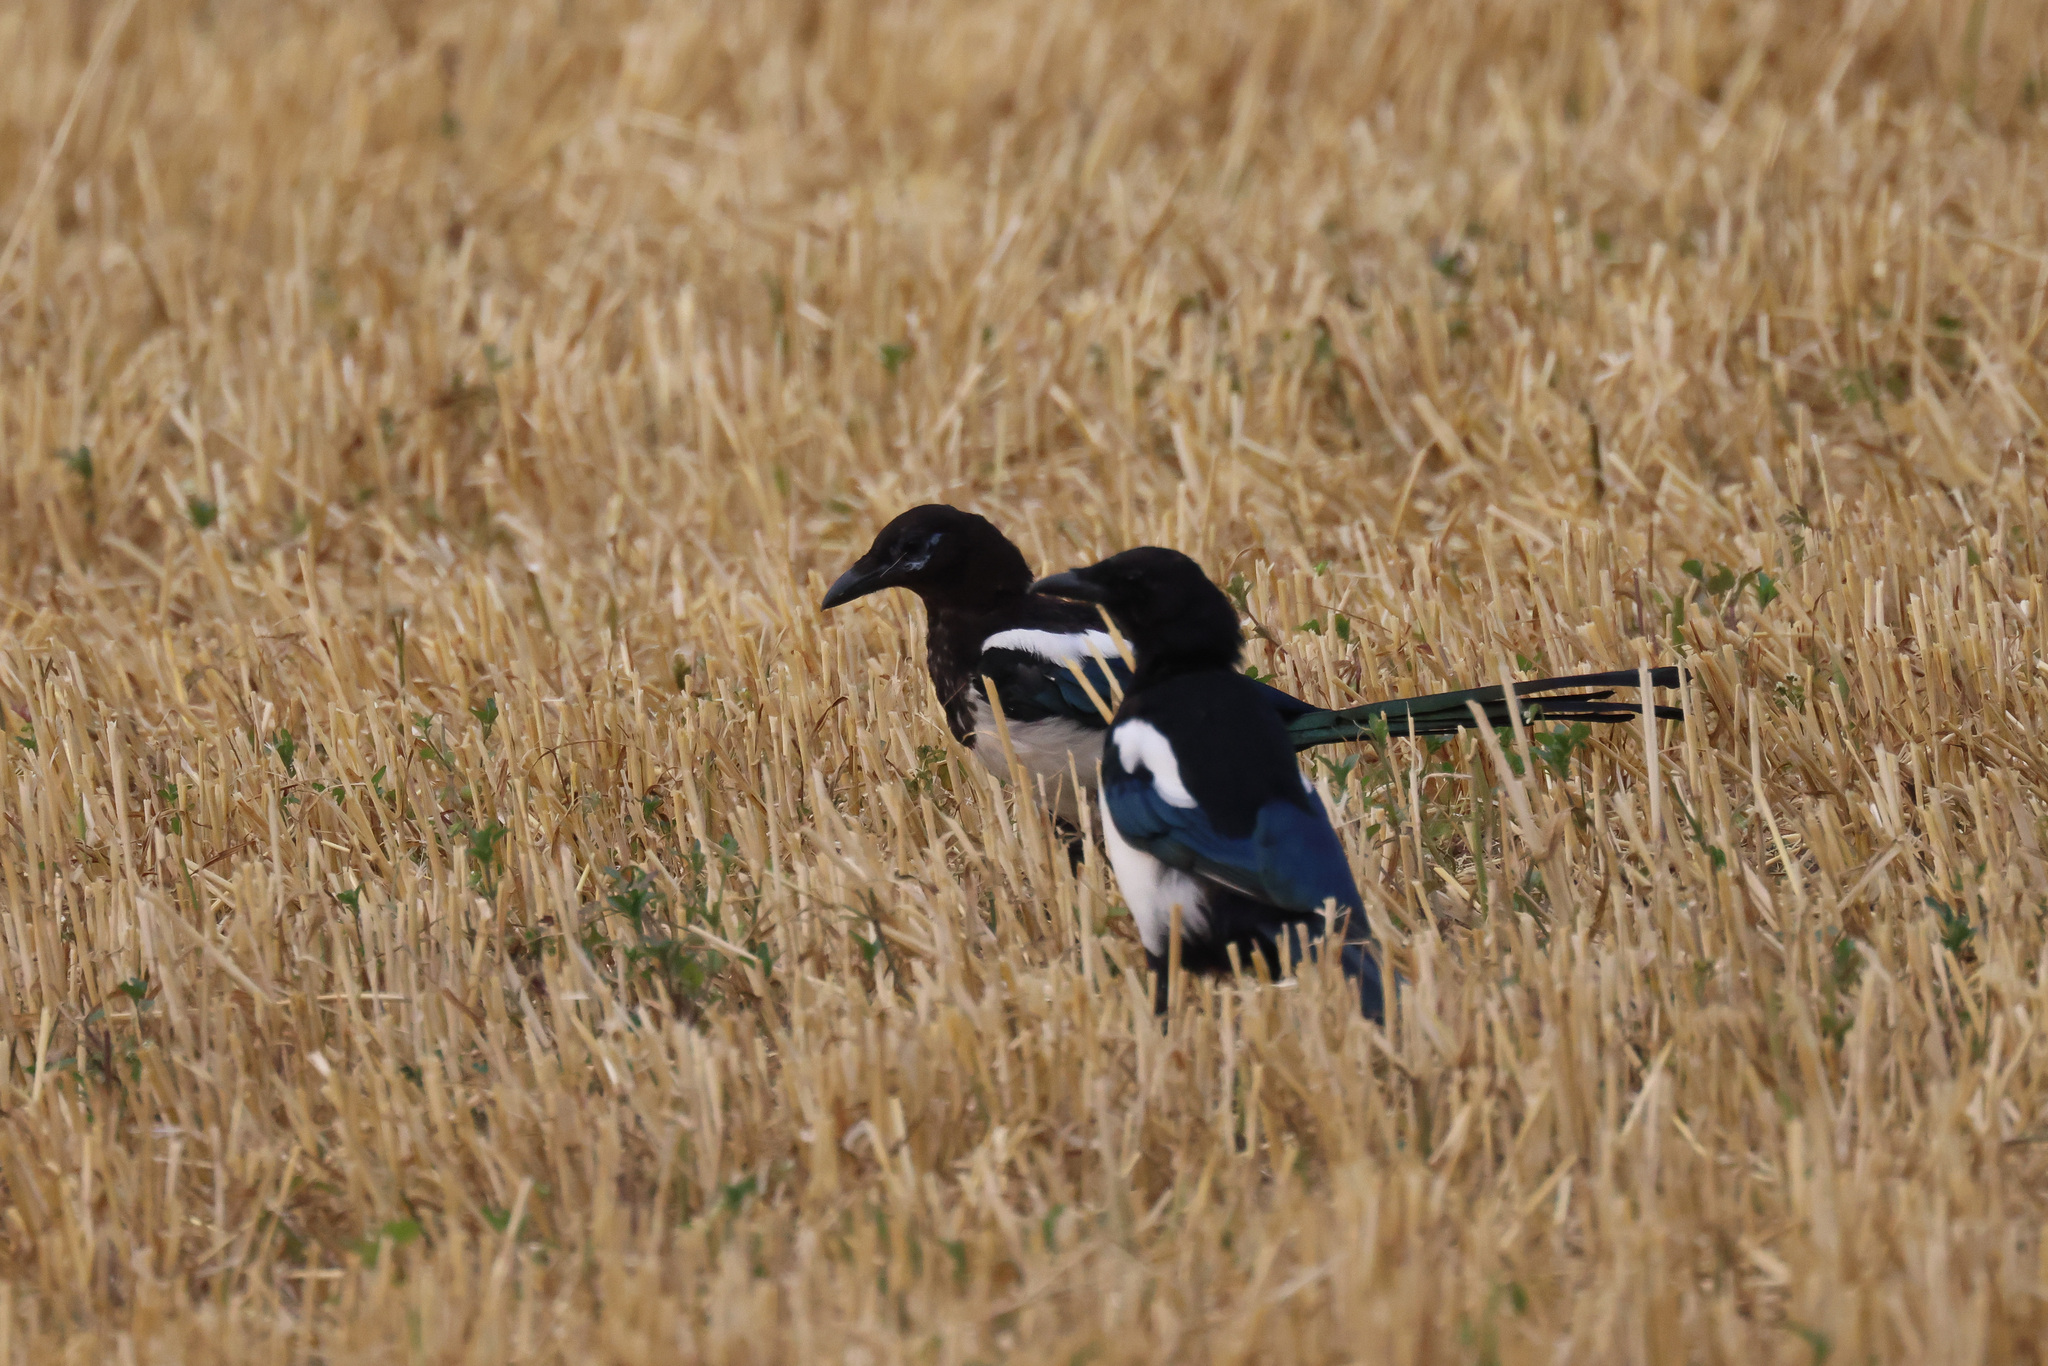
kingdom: Animalia
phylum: Chordata
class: Aves
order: Passeriformes
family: Corvidae
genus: Pica
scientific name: Pica pica
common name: Eurasian magpie
